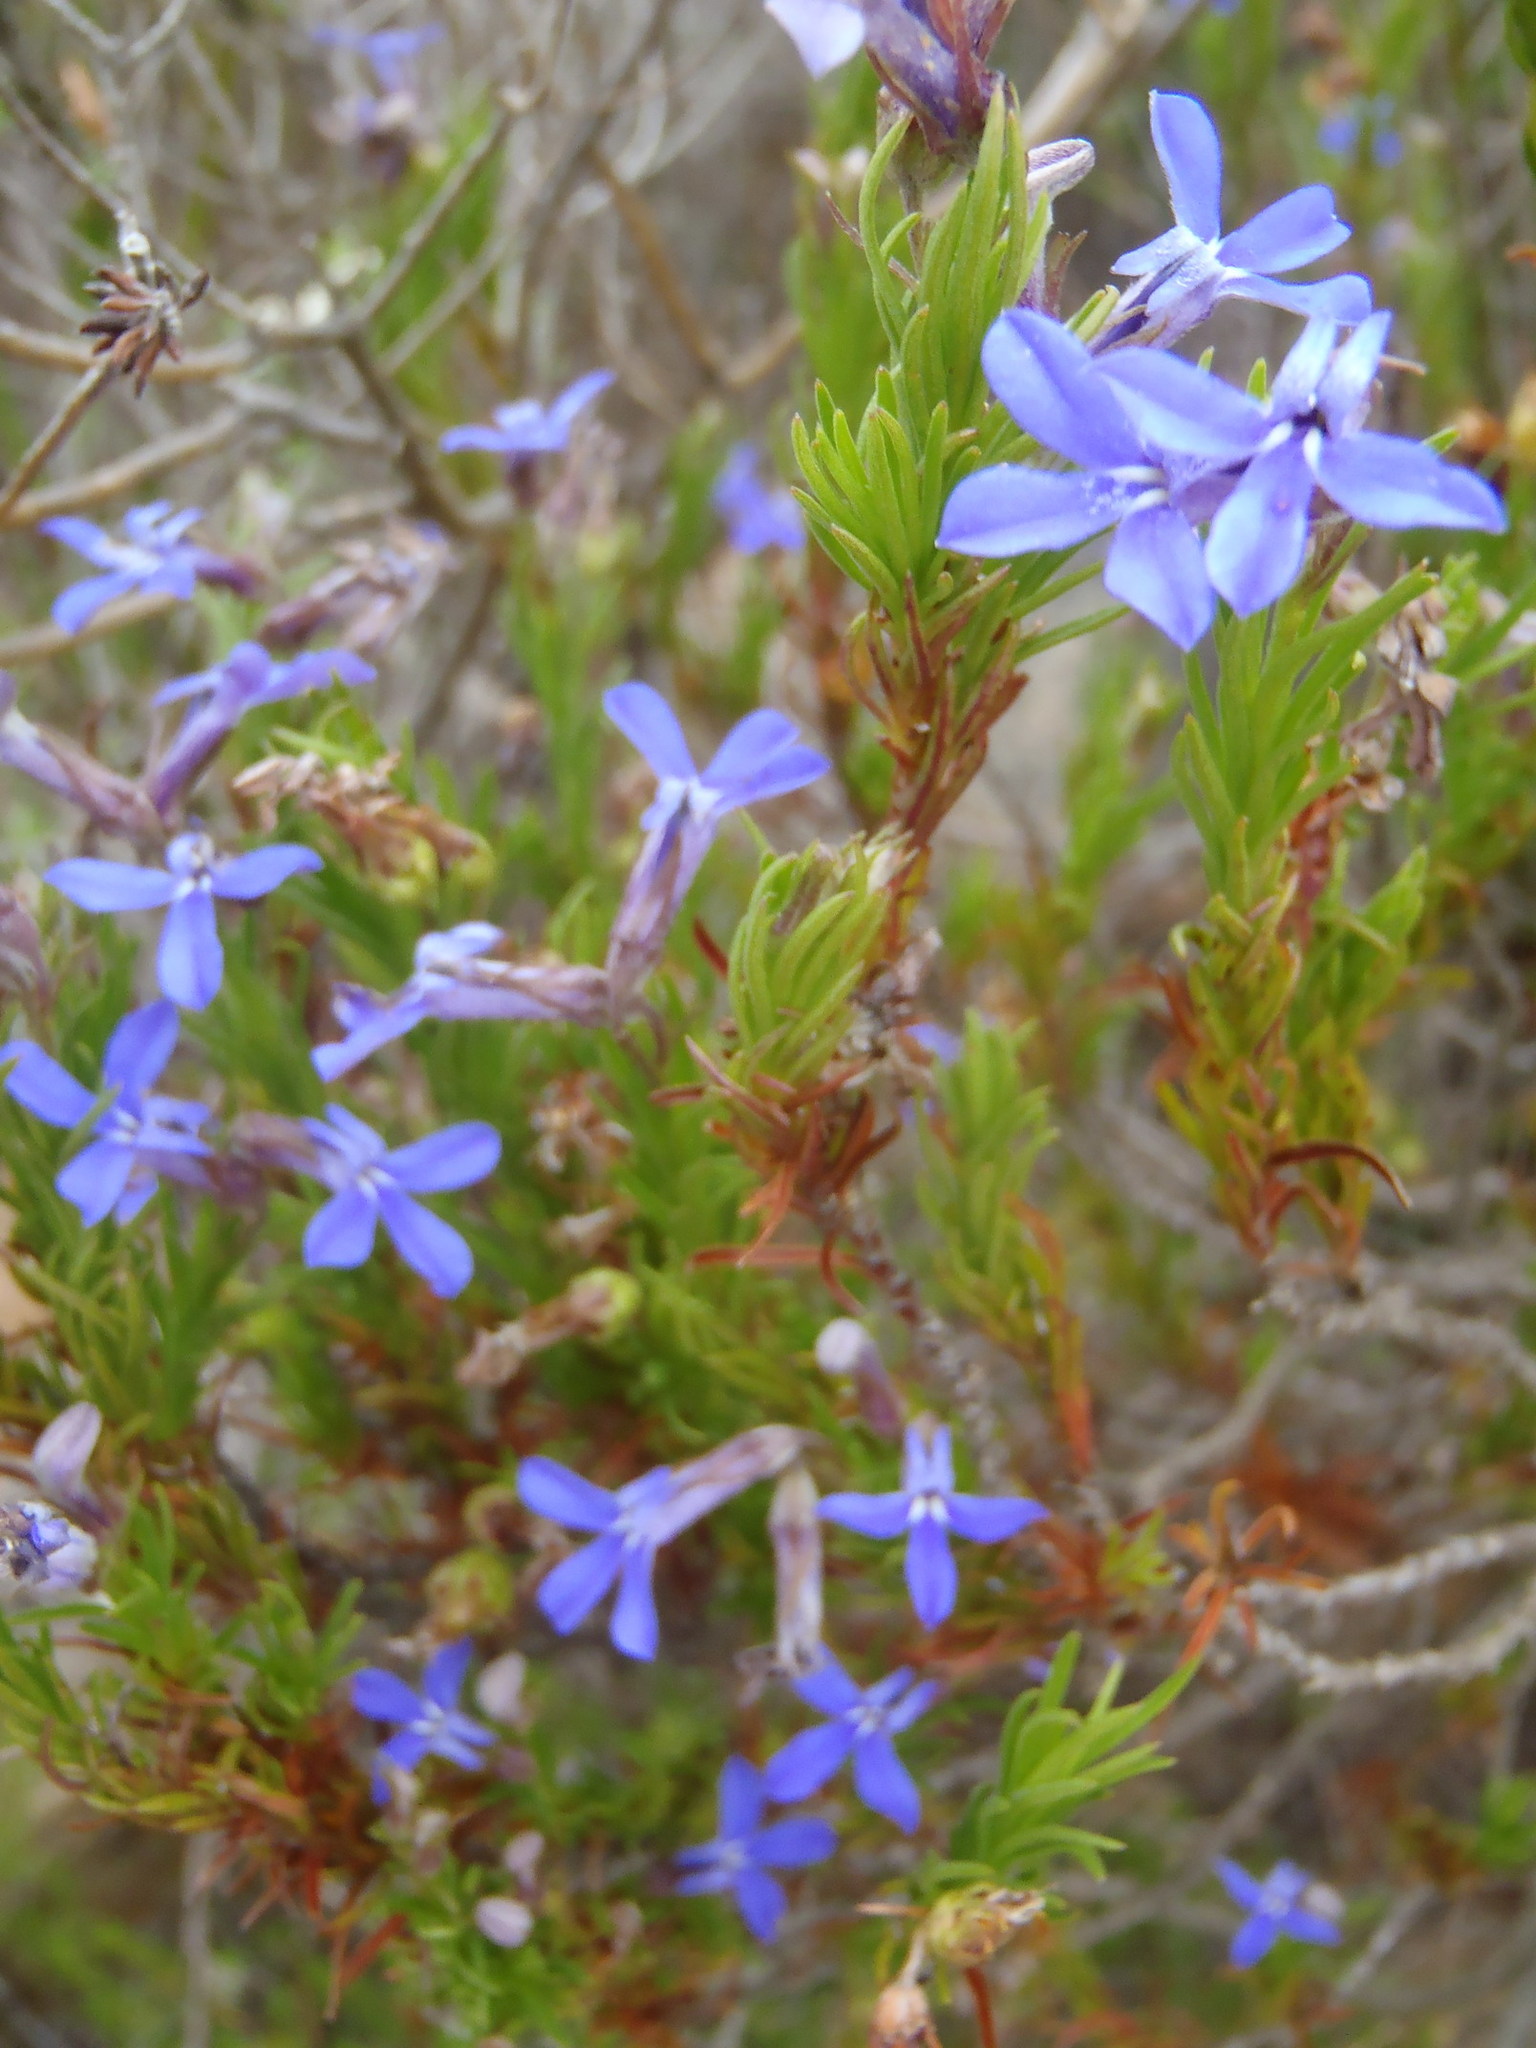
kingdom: Plantae
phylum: Tracheophyta
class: Magnoliopsida
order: Asterales
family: Campanulaceae
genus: Lobelia
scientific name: Lobelia pinifolia
